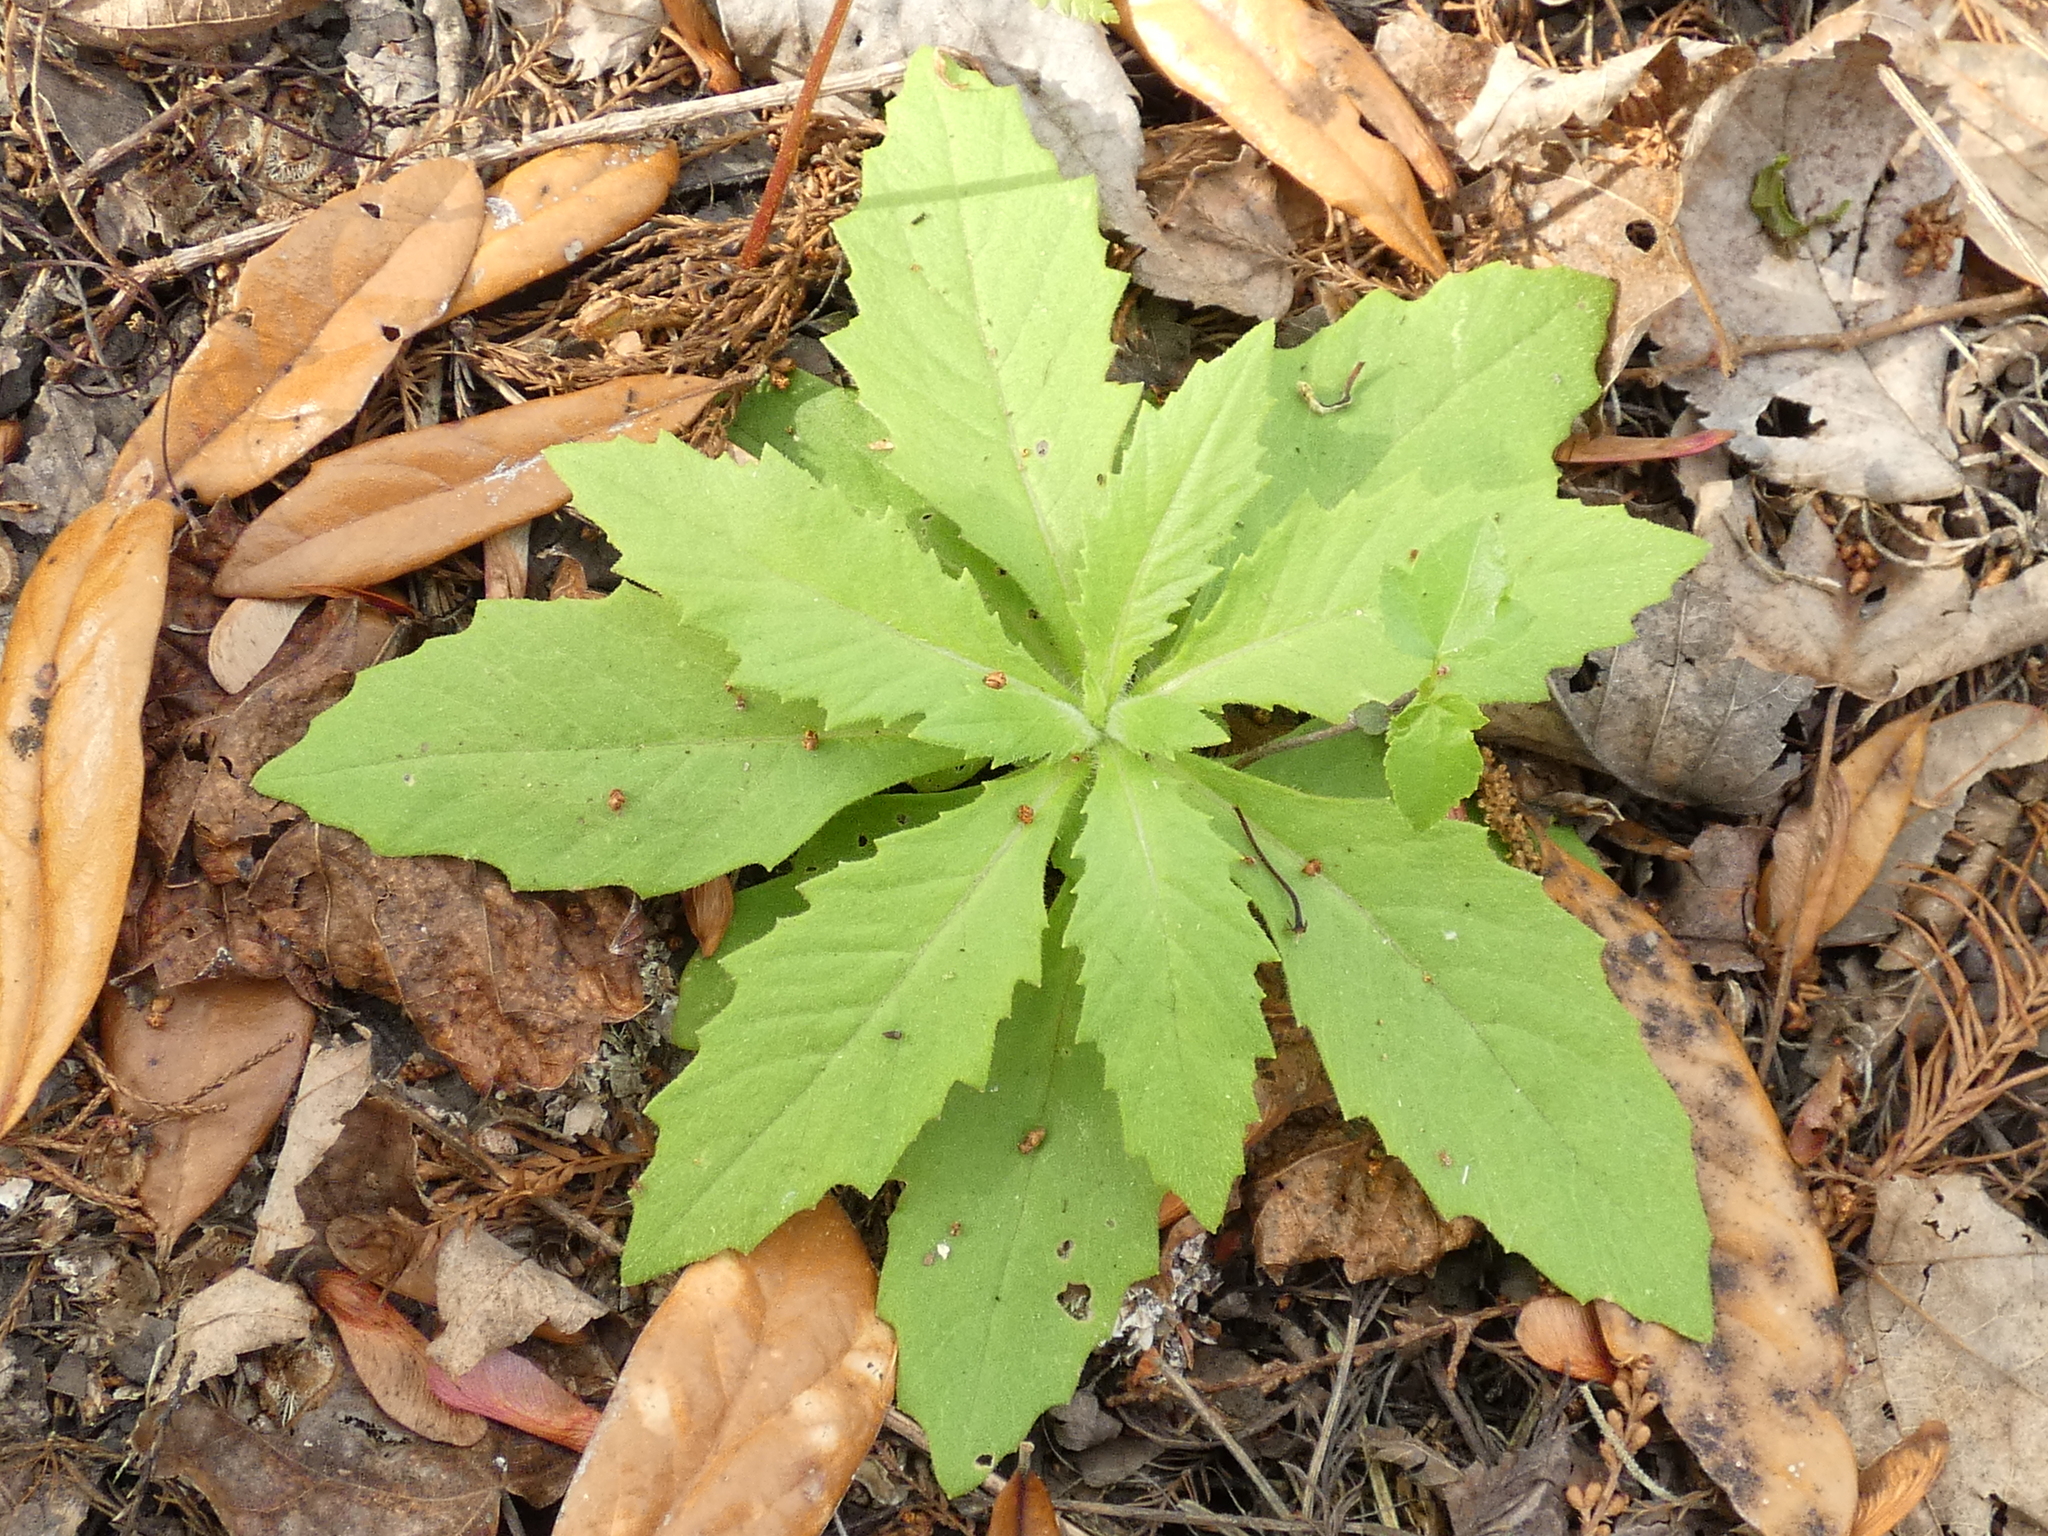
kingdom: Plantae
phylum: Tracheophyta
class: Magnoliopsida
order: Asterales
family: Asteraceae
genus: Erechtites
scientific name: Erechtites hieraciifolius
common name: American burnweed
